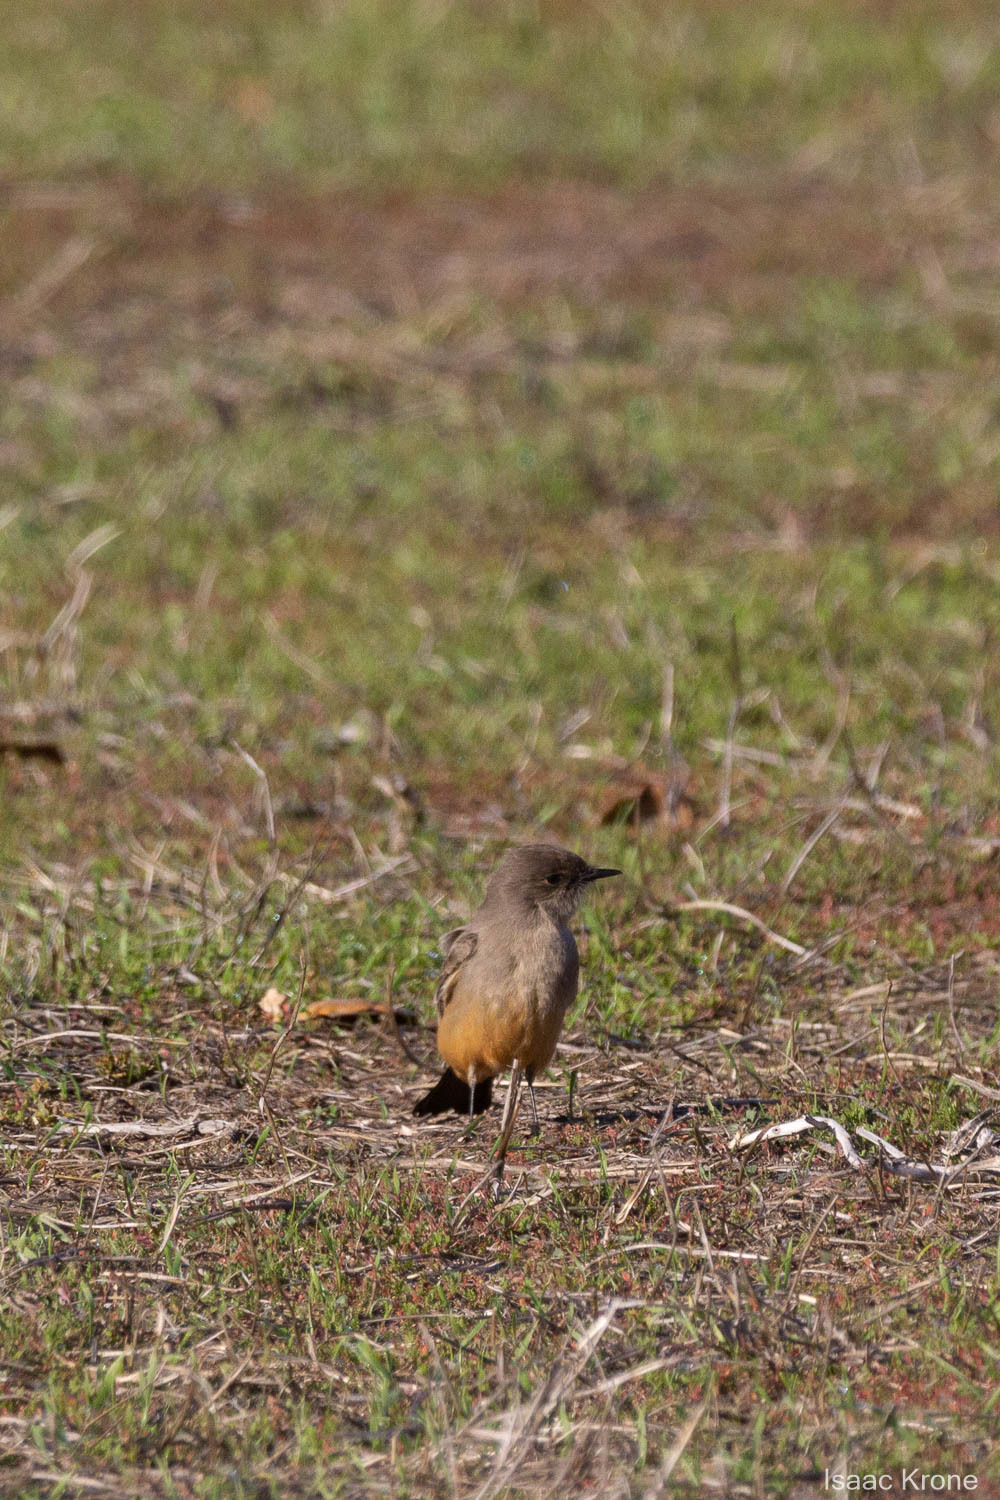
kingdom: Animalia
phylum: Chordata
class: Aves
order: Passeriformes
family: Tyrannidae
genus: Sayornis
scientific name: Sayornis saya
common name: Say's phoebe
